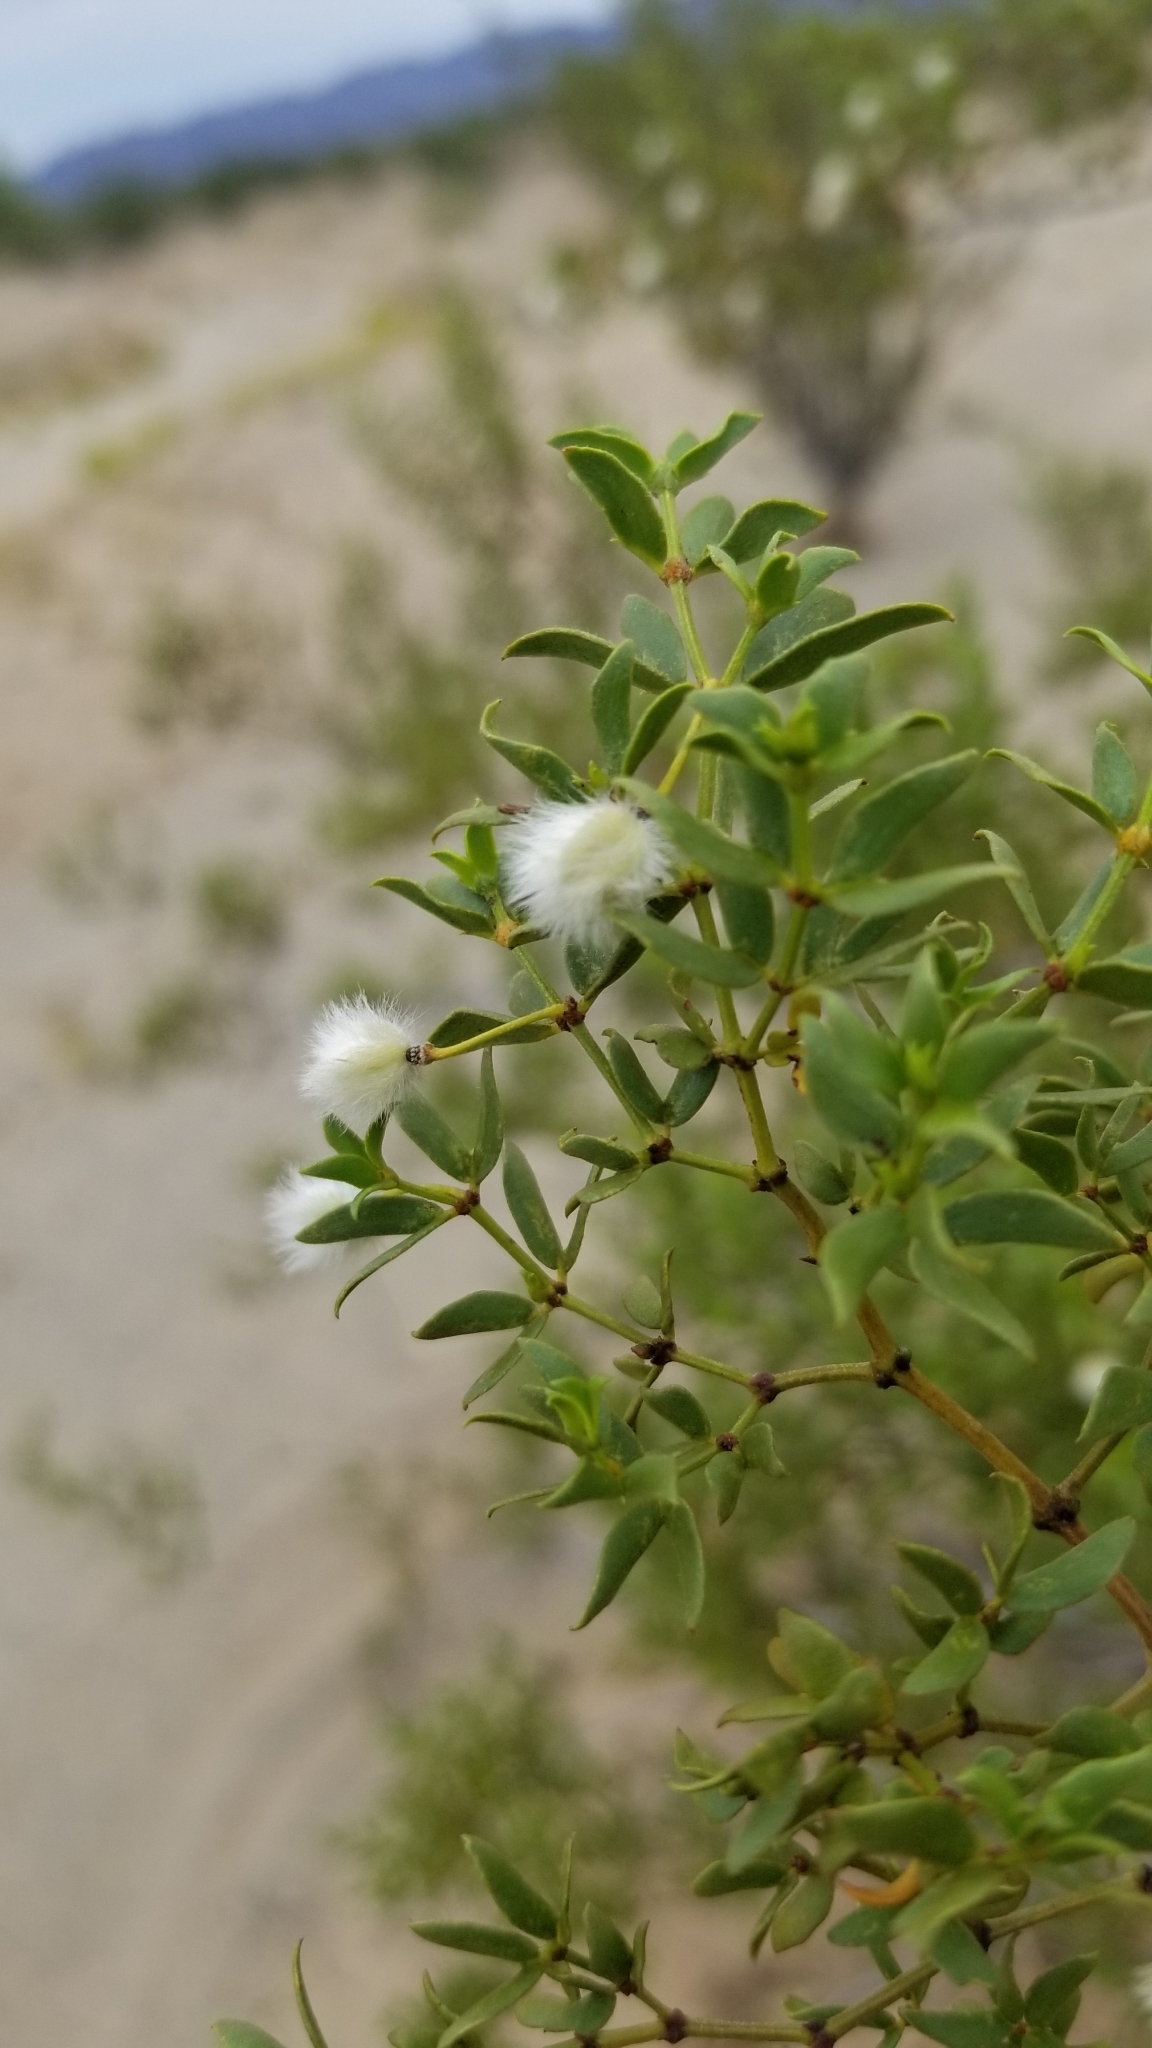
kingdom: Plantae
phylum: Tracheophyta
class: Magnoliopsida
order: Zygophyllales
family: Zygophyllaceae
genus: Larrea
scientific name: Larrea tridentata
